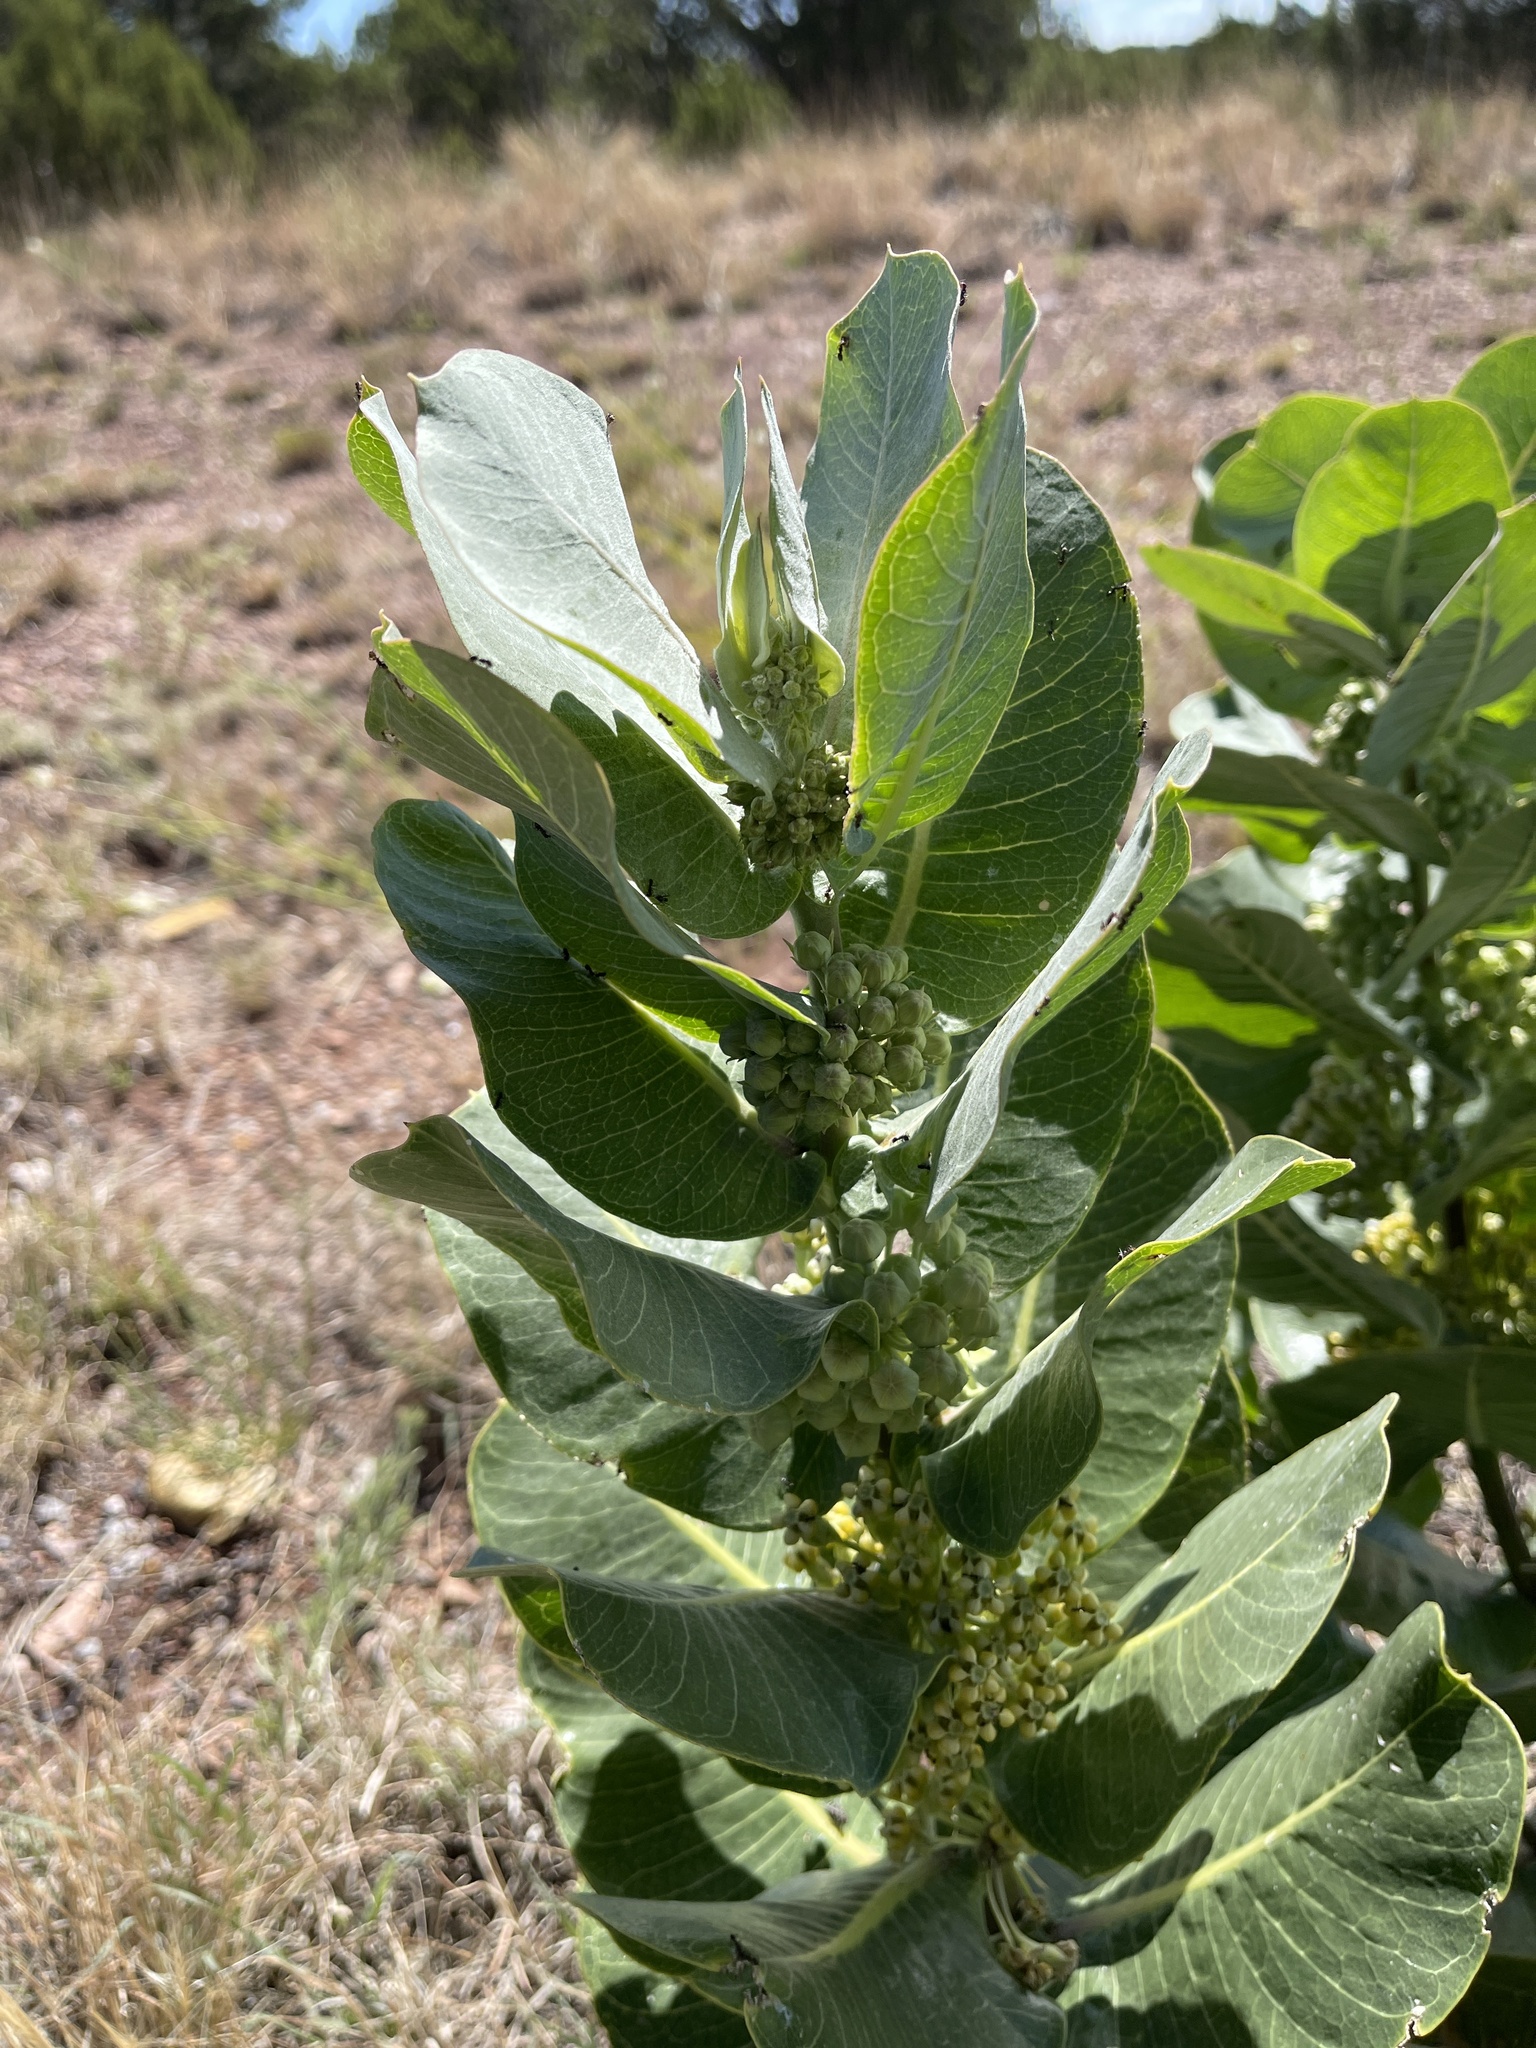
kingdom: Plantae
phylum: Tracheophyta
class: Magnoliopsida
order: Gentianales
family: Apocynaceae
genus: Asclepias
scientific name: Asclepias latifolia
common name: Broadleaf milkweed
